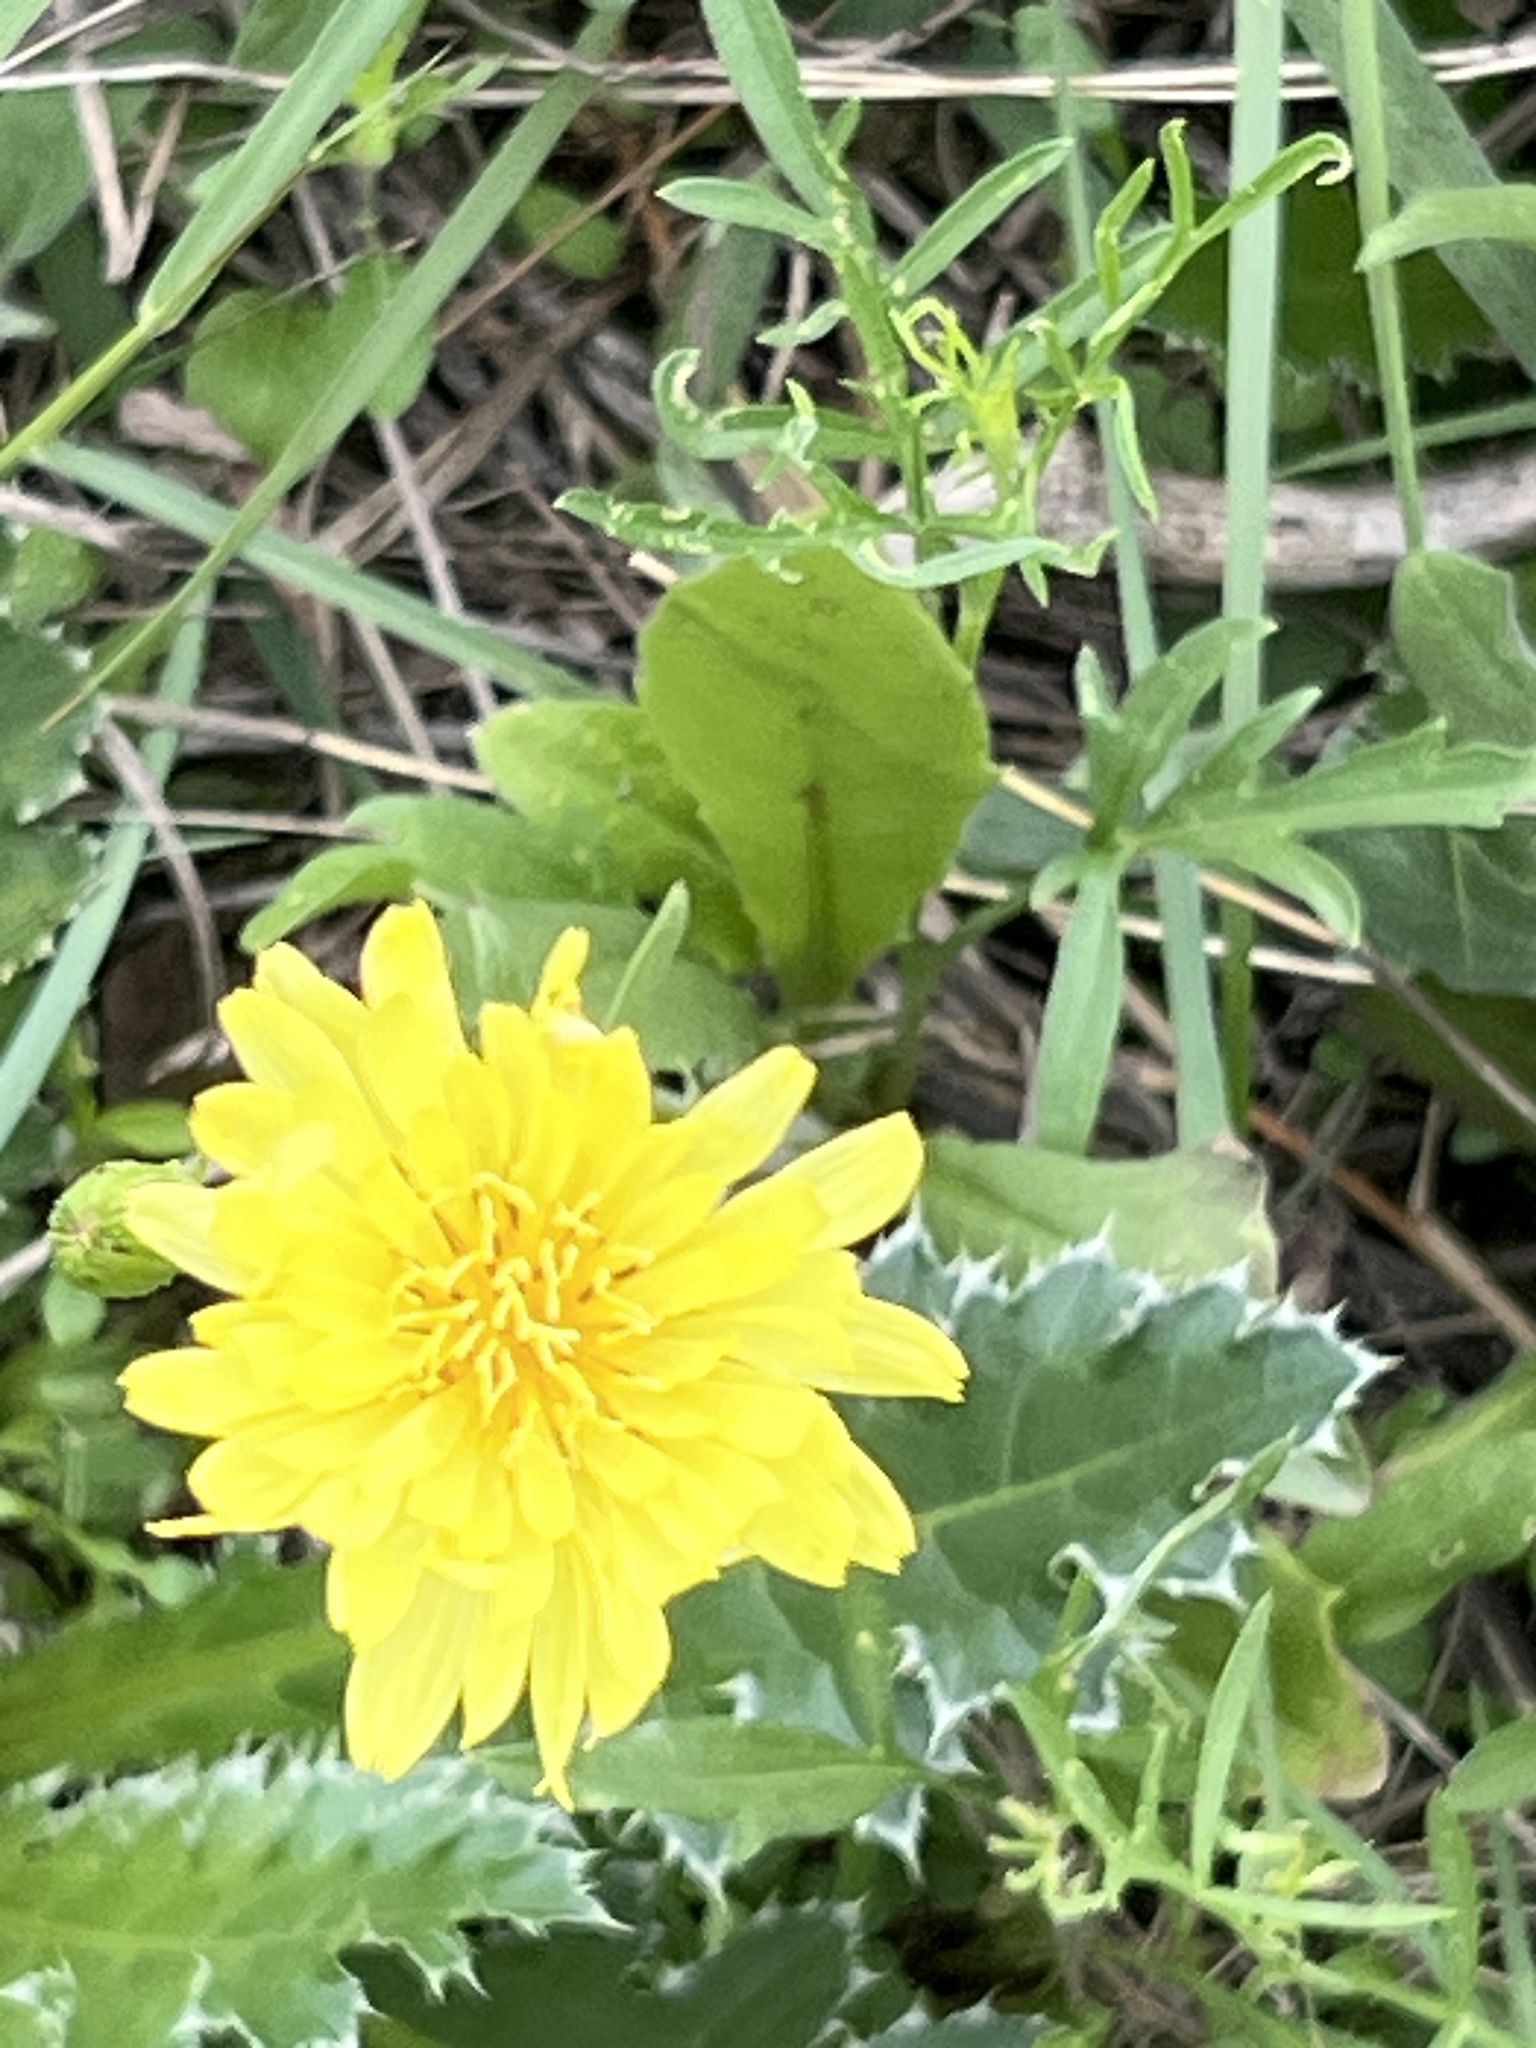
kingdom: Plantae
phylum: Tracheophyta
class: Magnoliopsida
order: Asterales
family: Asteraceae
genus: Pyrrhopappus
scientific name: Pyrrhopappus pauciflorus
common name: Texas false dandelion
